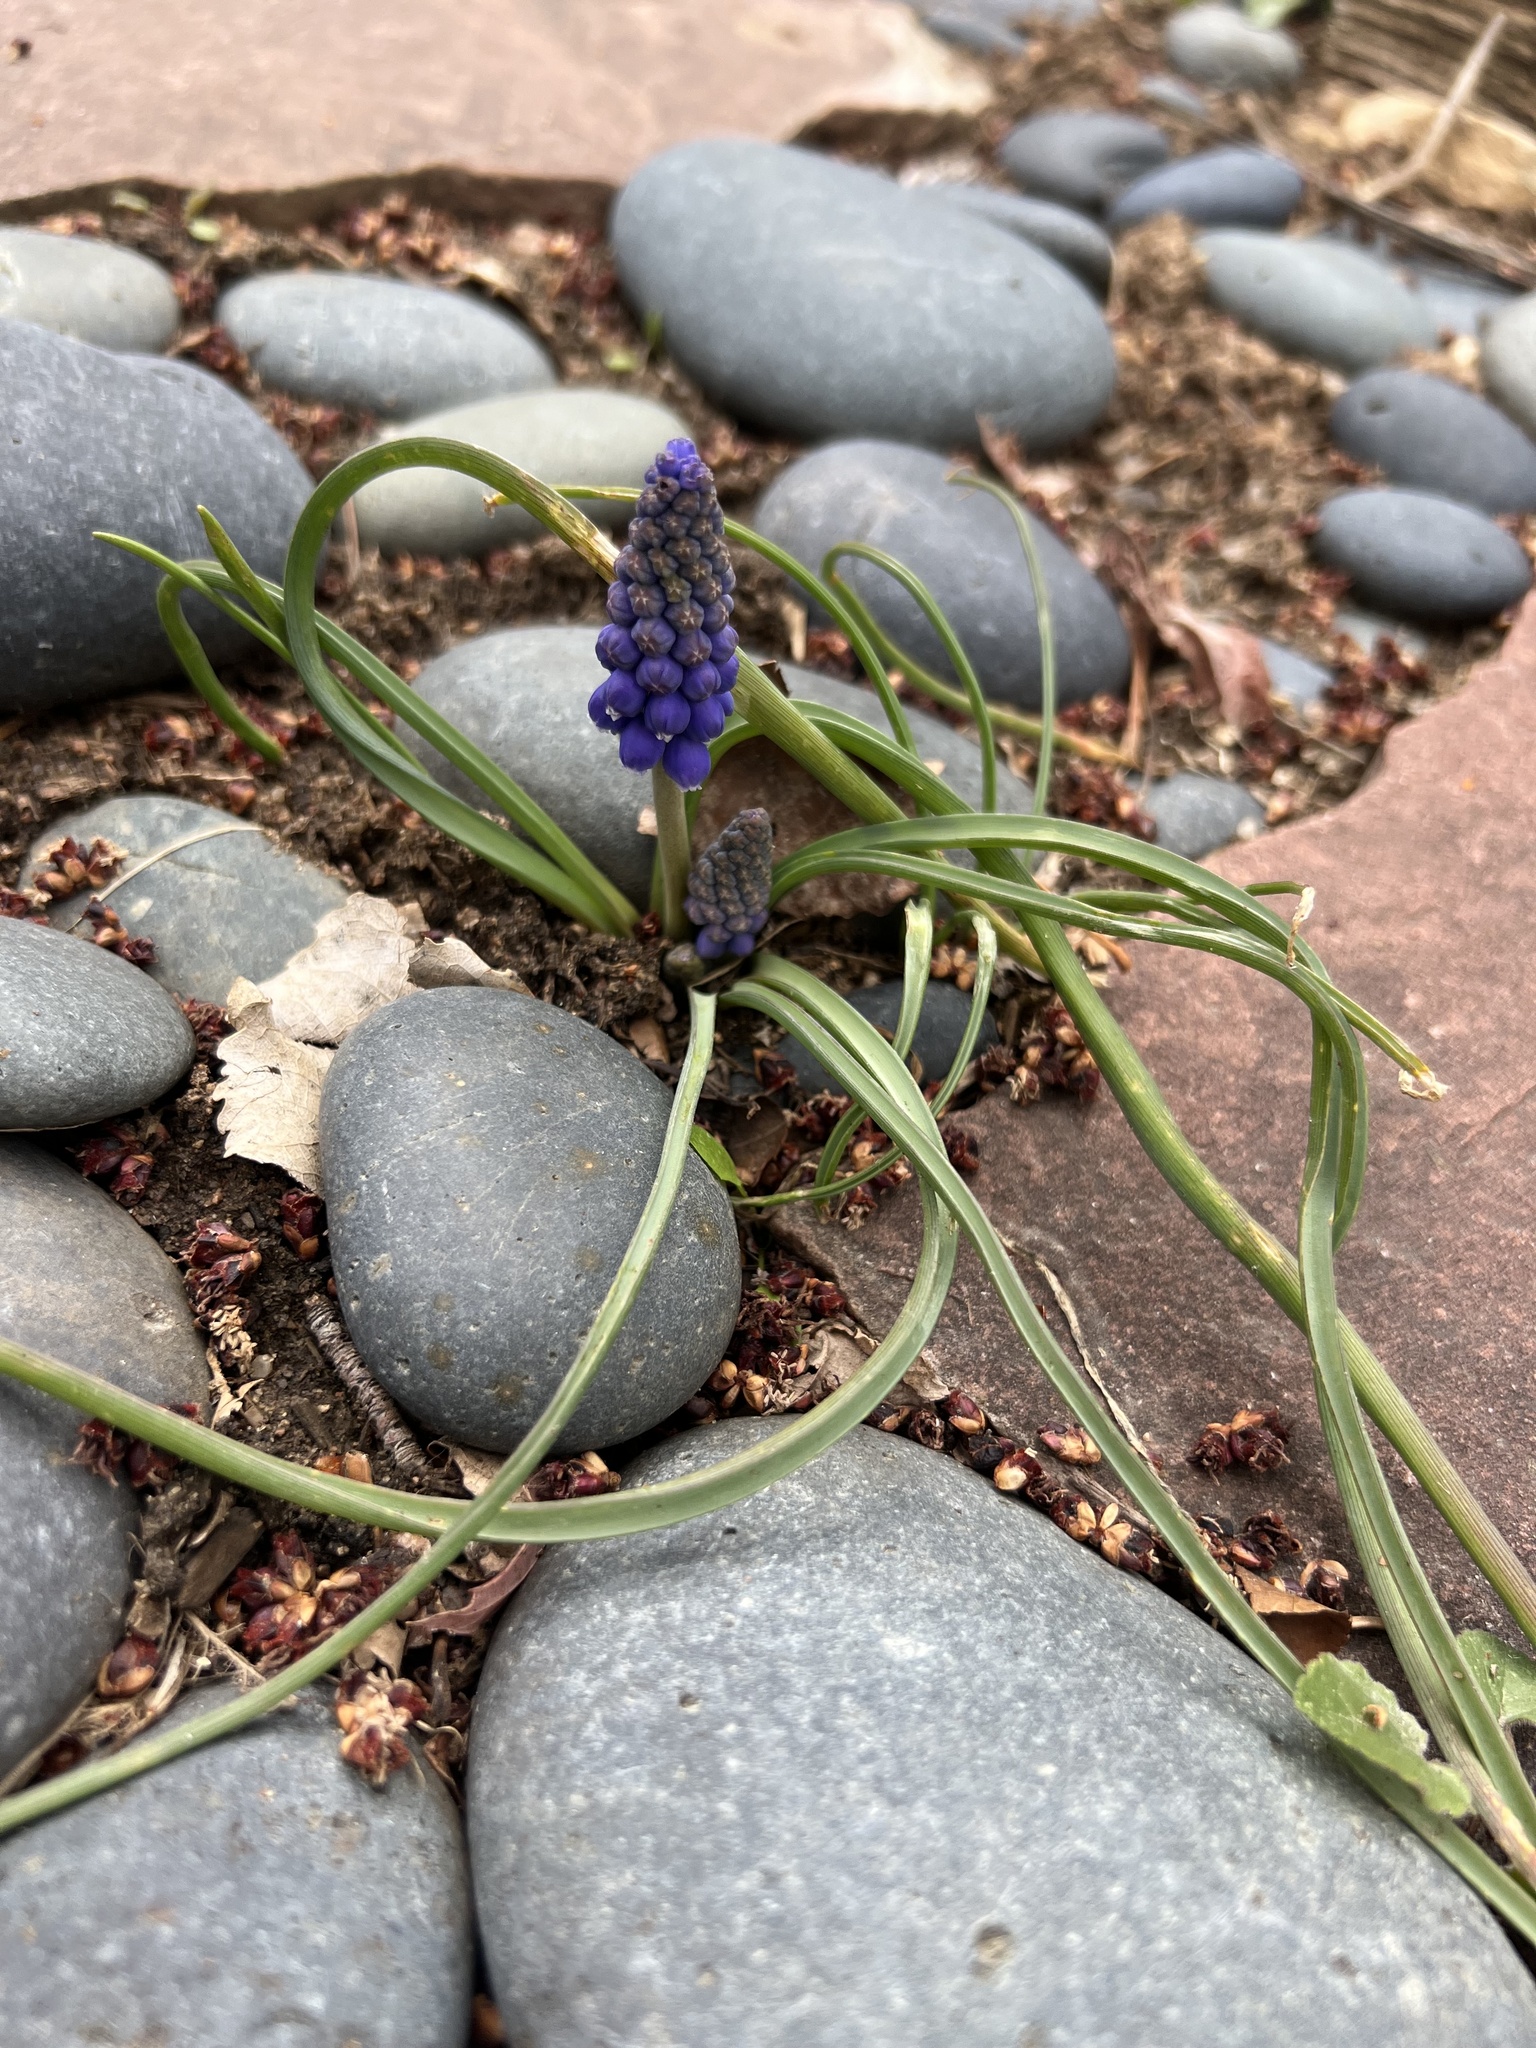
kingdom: Plantae
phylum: Tracheophyta
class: Liliopsida
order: Asparagales
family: Asparagaceae
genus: Muscari
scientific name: Muscari neglectum
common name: Grape-hyacinth
